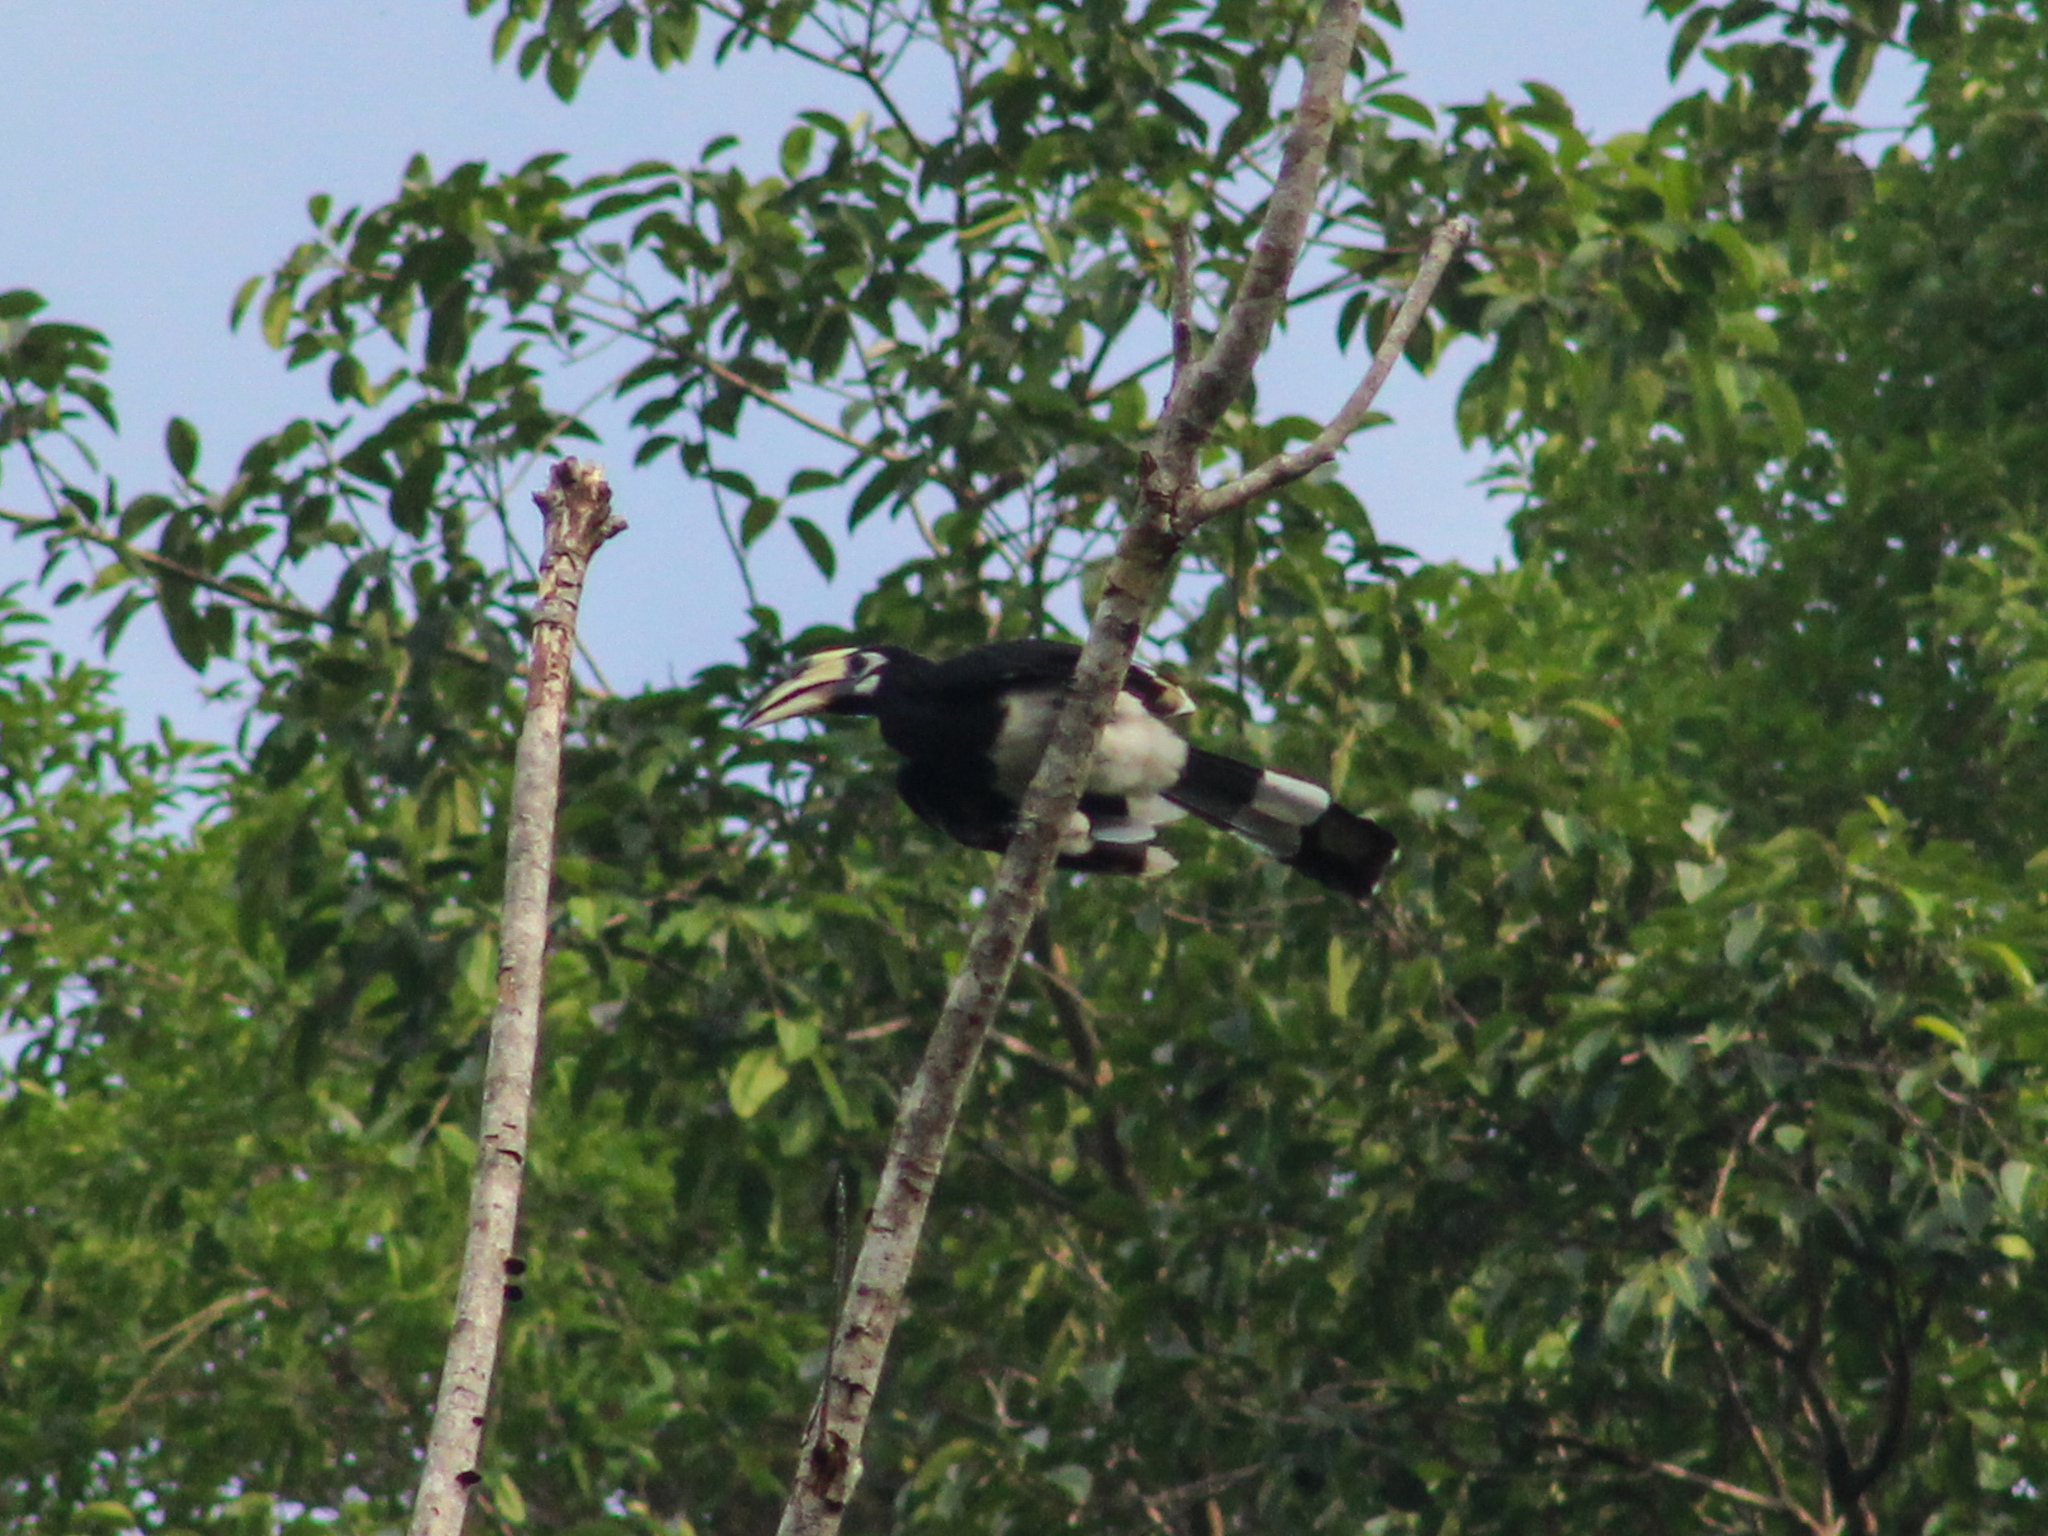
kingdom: Animalia
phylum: Chordata
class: Aves
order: Bucerotiformes
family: Bucerotidae
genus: Anthracoceros
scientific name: Anthracoceros albirostris
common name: Oriental pied-hornbill
